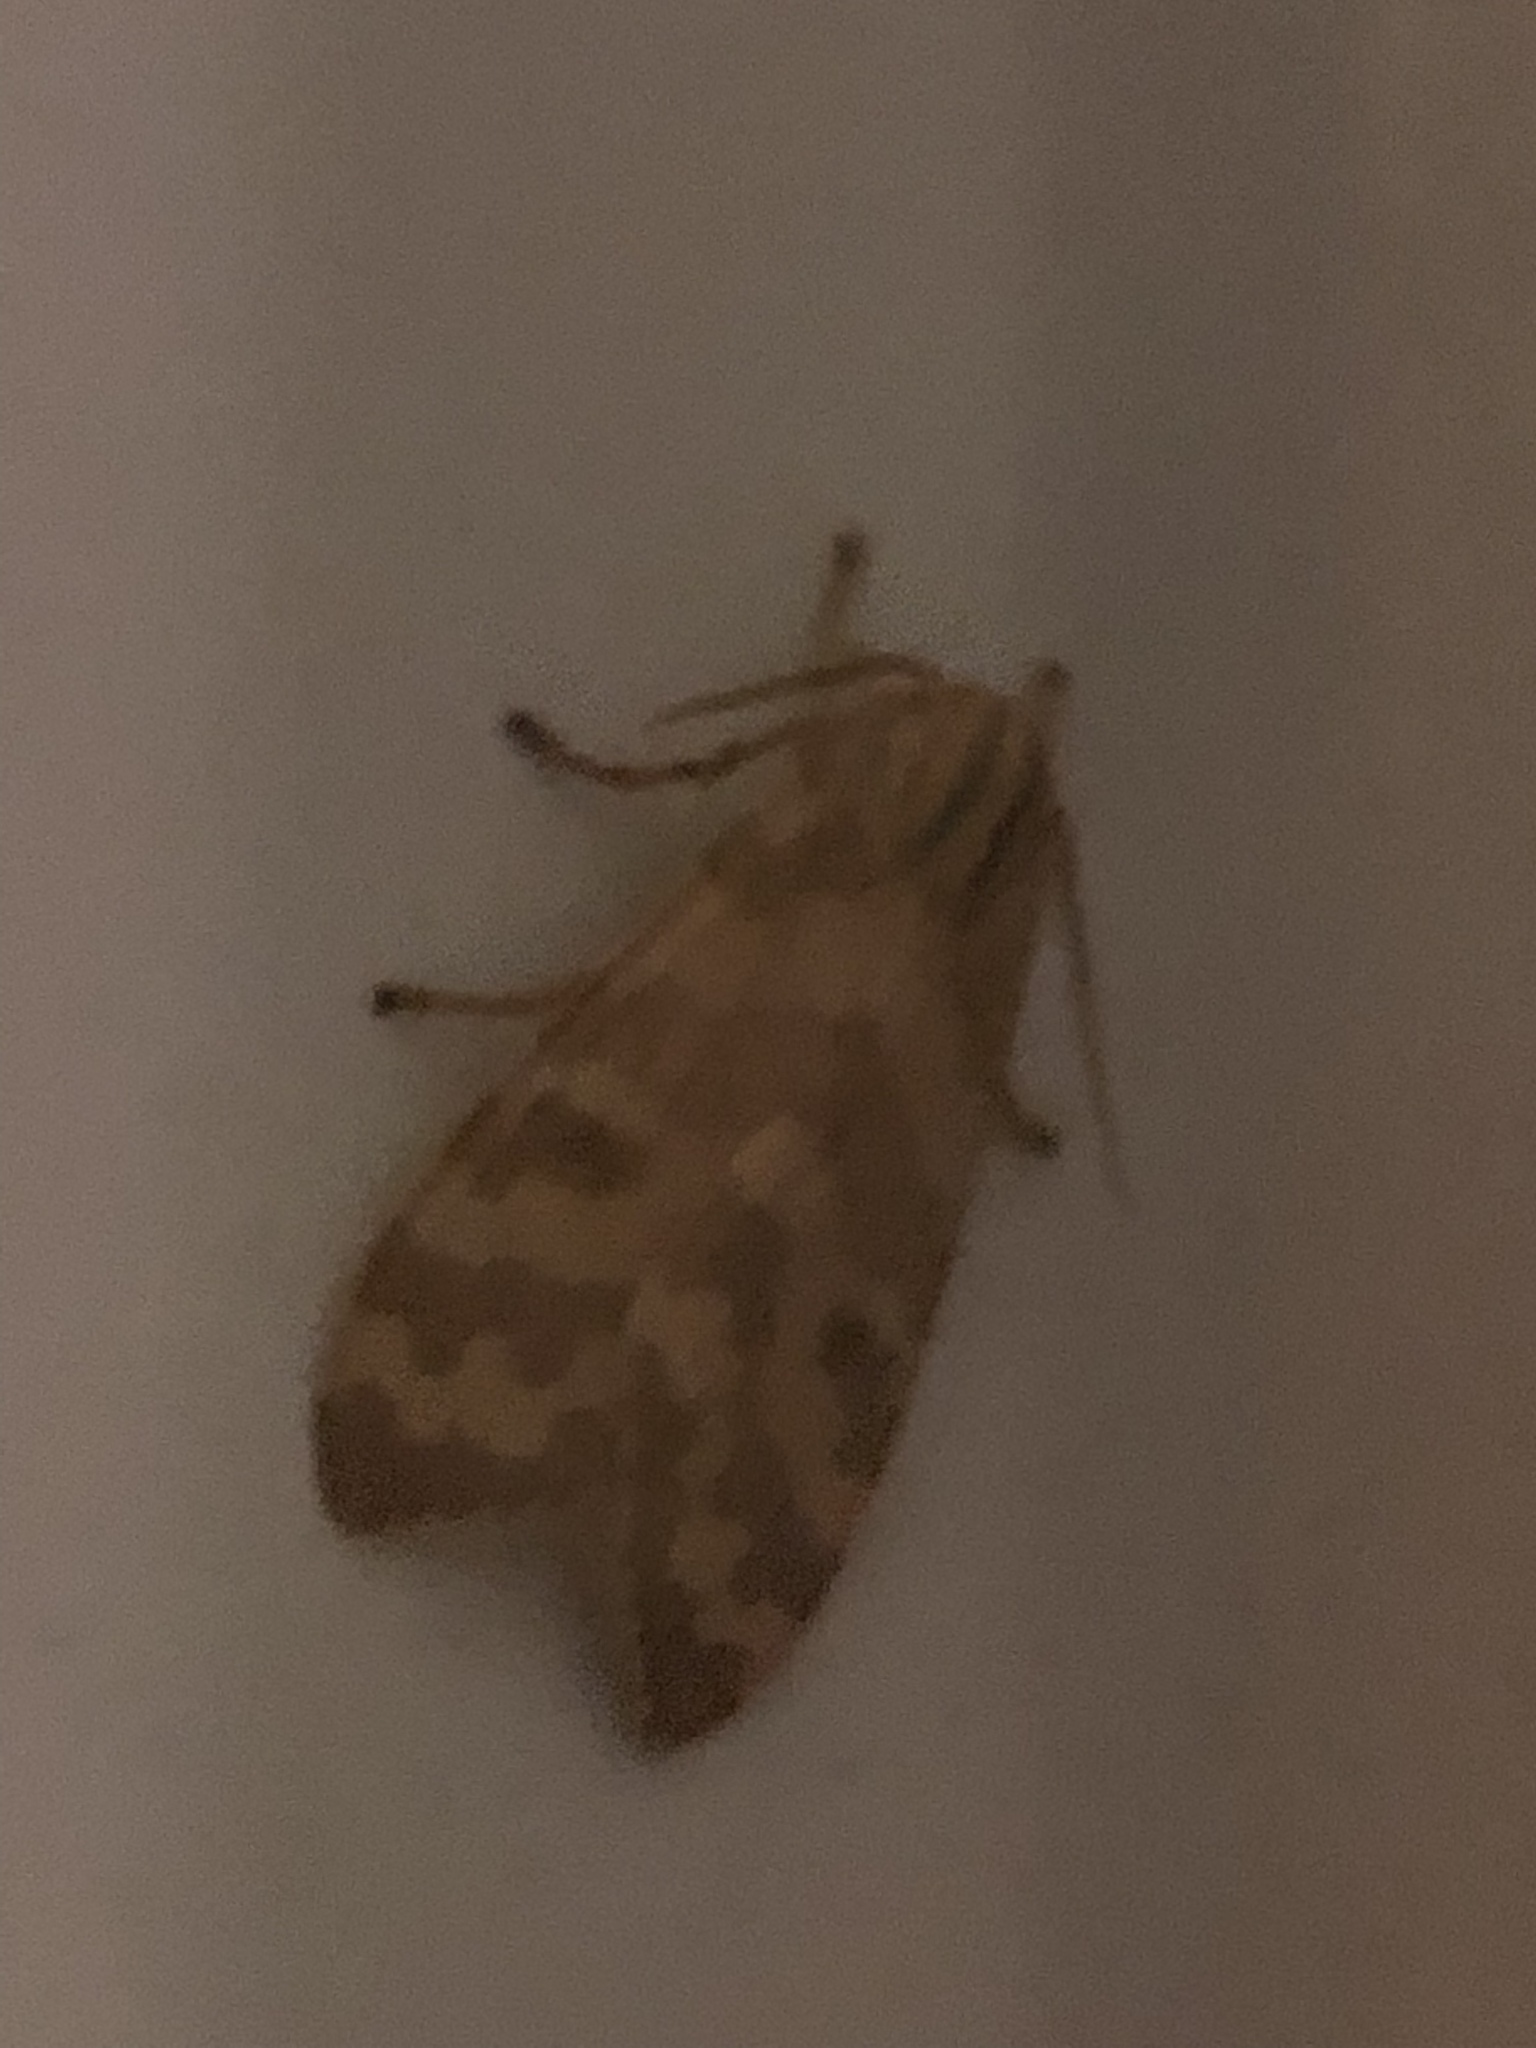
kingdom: Animalia
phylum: Arthropoda
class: Insecta
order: Lepidoptera
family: Erebidae
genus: Halysidota
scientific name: Halysidota
